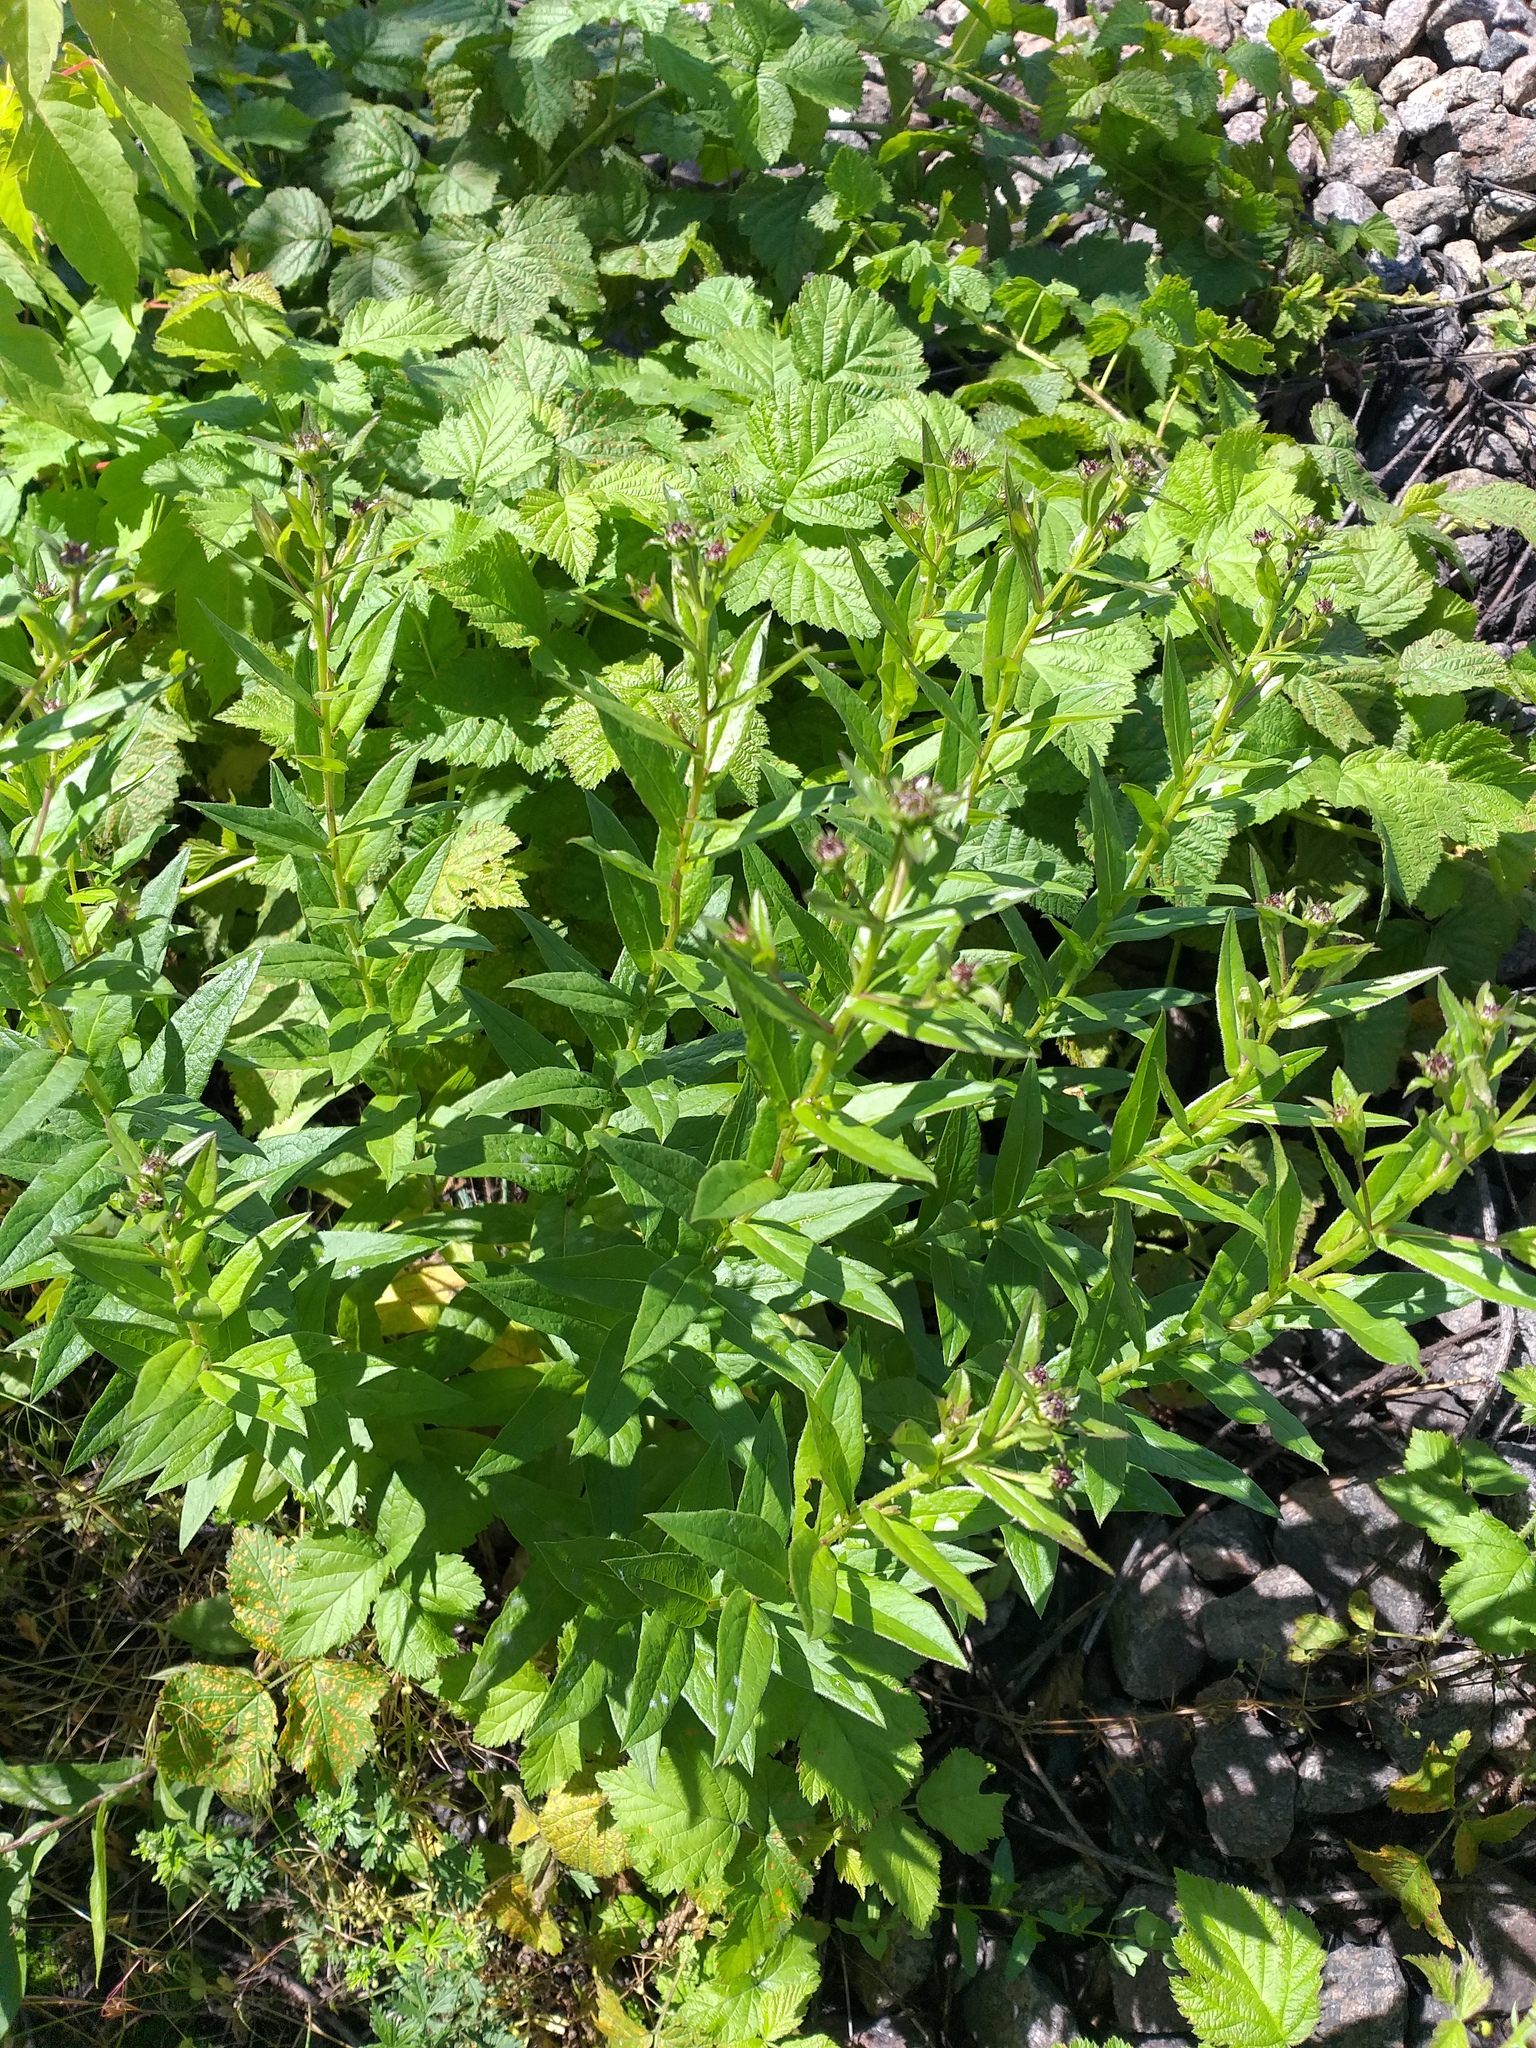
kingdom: Plantae
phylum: Tracheophyta
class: Magnoliopsida
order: Asterales
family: Asteraceae
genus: Pentanema
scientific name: Pentanema asperum
